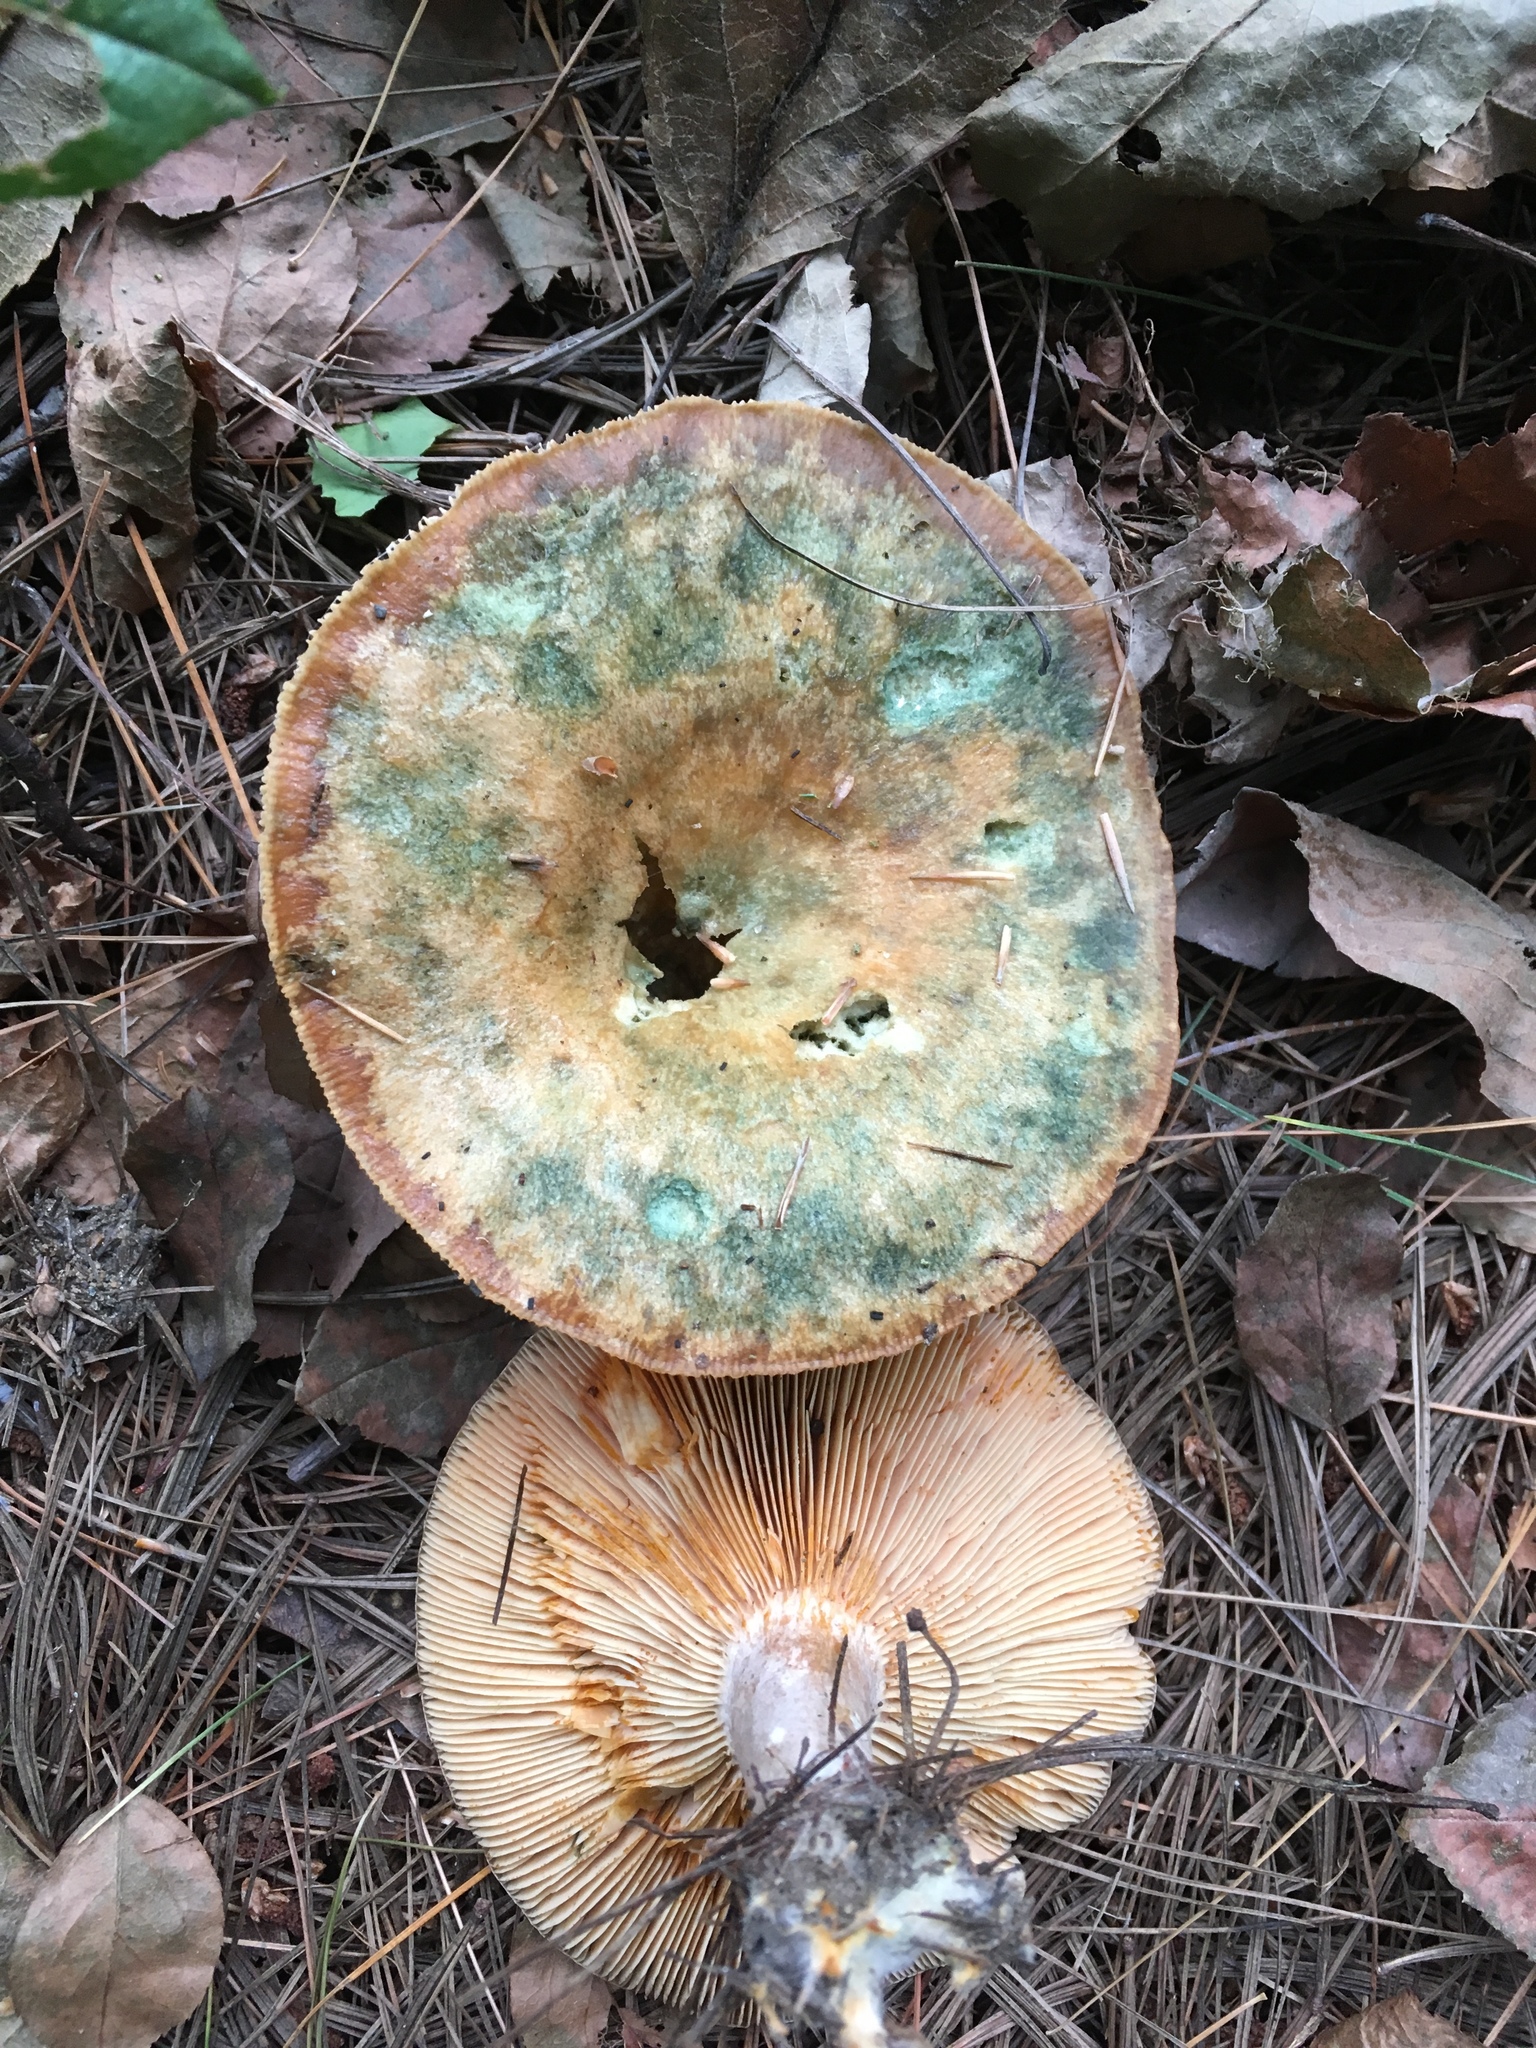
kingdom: Fungi
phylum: Basidiomycota
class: Agaricomycetes
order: Russulales
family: Russulaceae
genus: Lactarius
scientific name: Lactarius deterrimus
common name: False saffron milkcap
